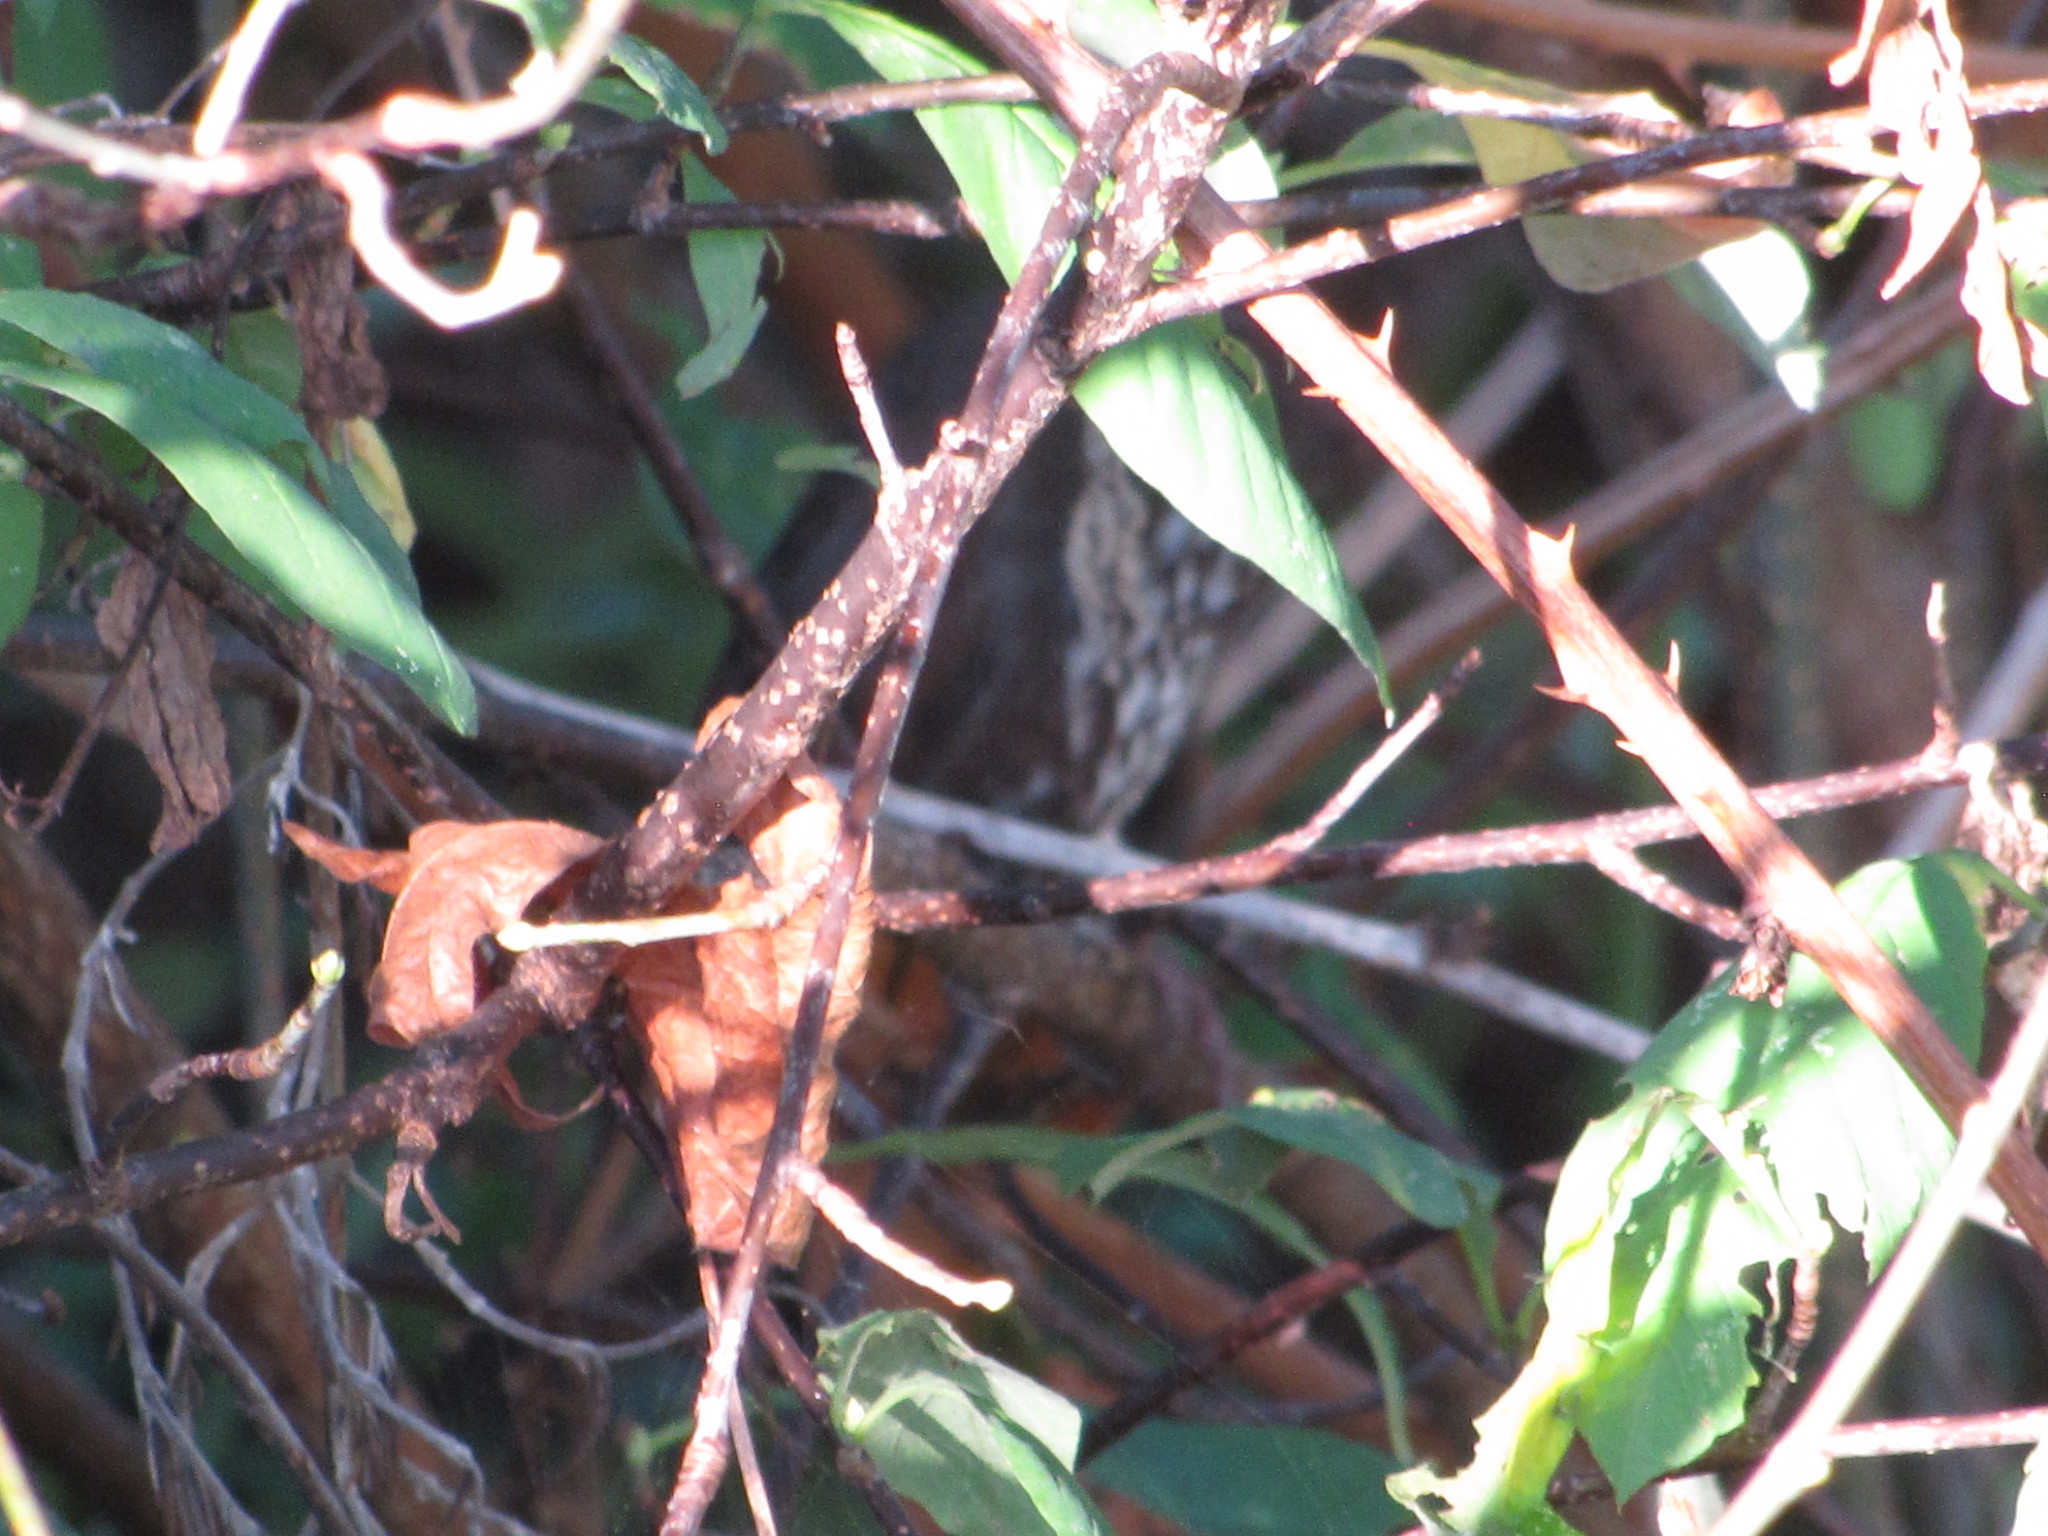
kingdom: Animalia
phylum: Chordata
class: Aves
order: Passeriformes
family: Passerellidae
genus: Passerella
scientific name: Passerella iliaca
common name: Fox sparrow
